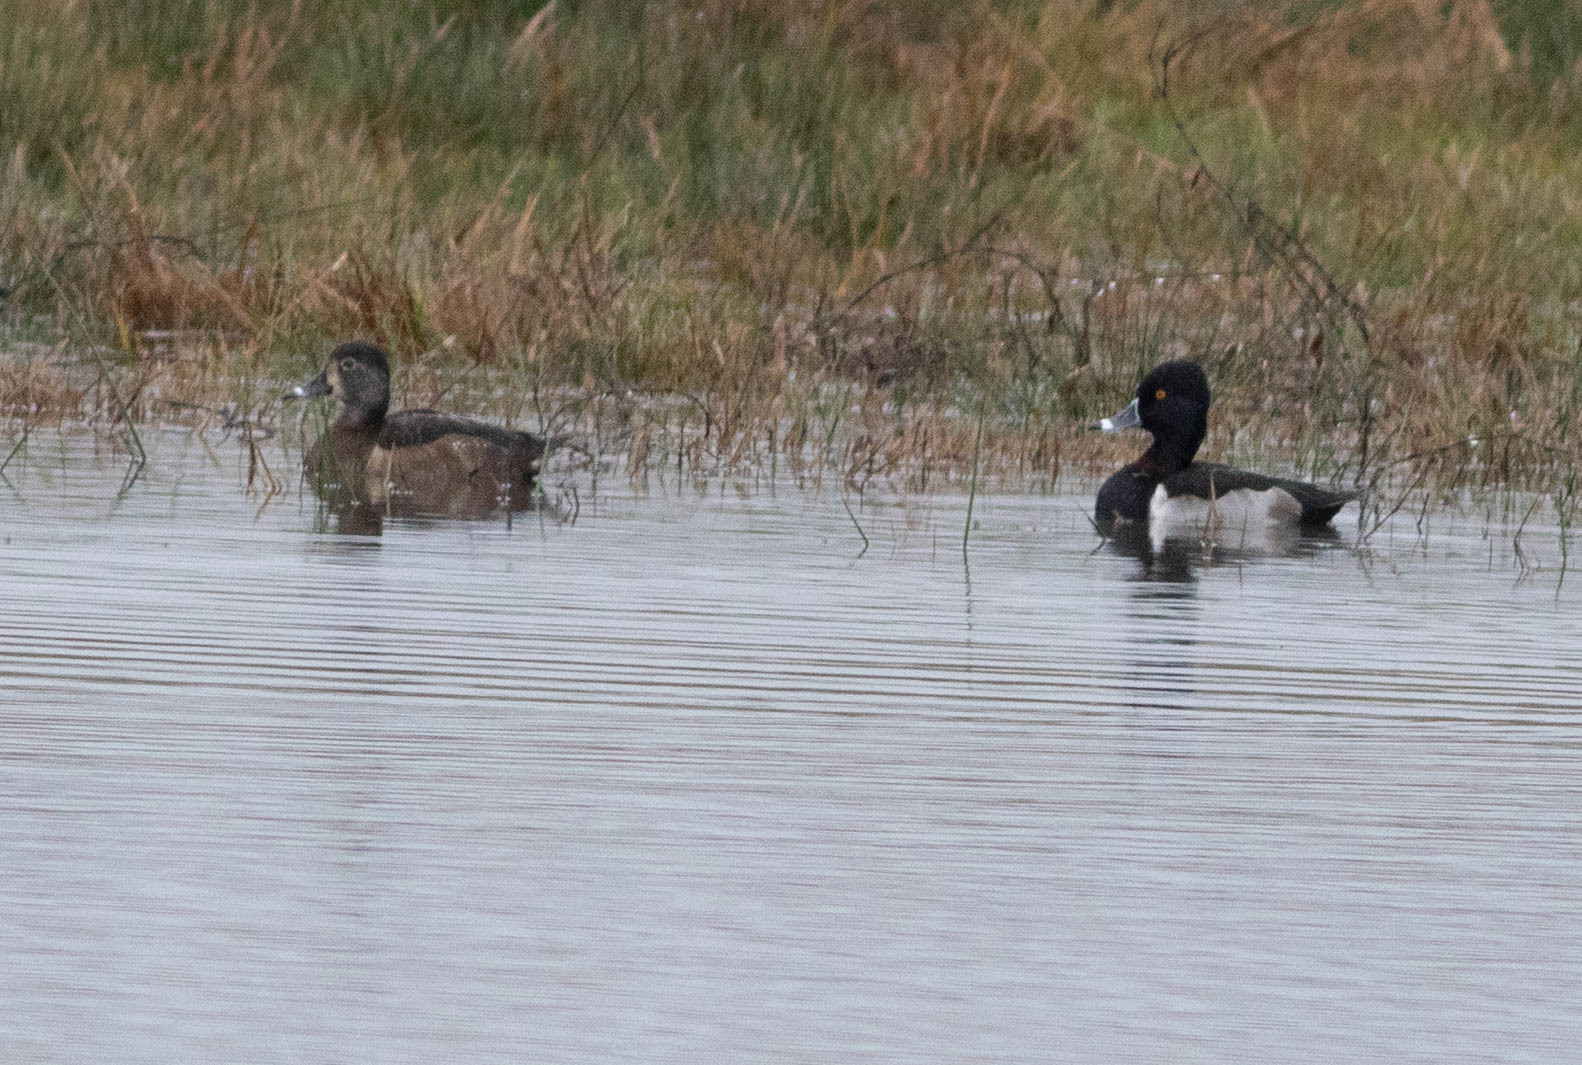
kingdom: Animalia
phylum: Chordata
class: Aves
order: Anseriformes
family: Anatidae
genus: Aythya
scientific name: Aythya collaris
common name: Ring-necked duck
